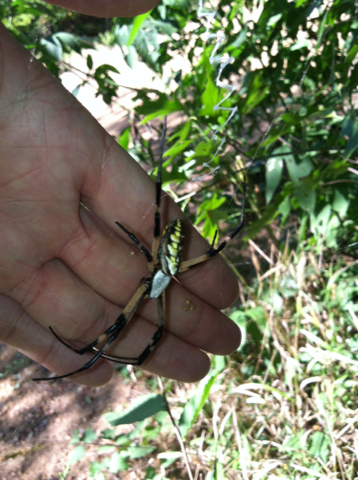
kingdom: Animalia
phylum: Arthropoda
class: Arachnida
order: Araneae
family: Araneidae
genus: Argiope
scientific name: Argiope aurantia
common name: Orb weavers
